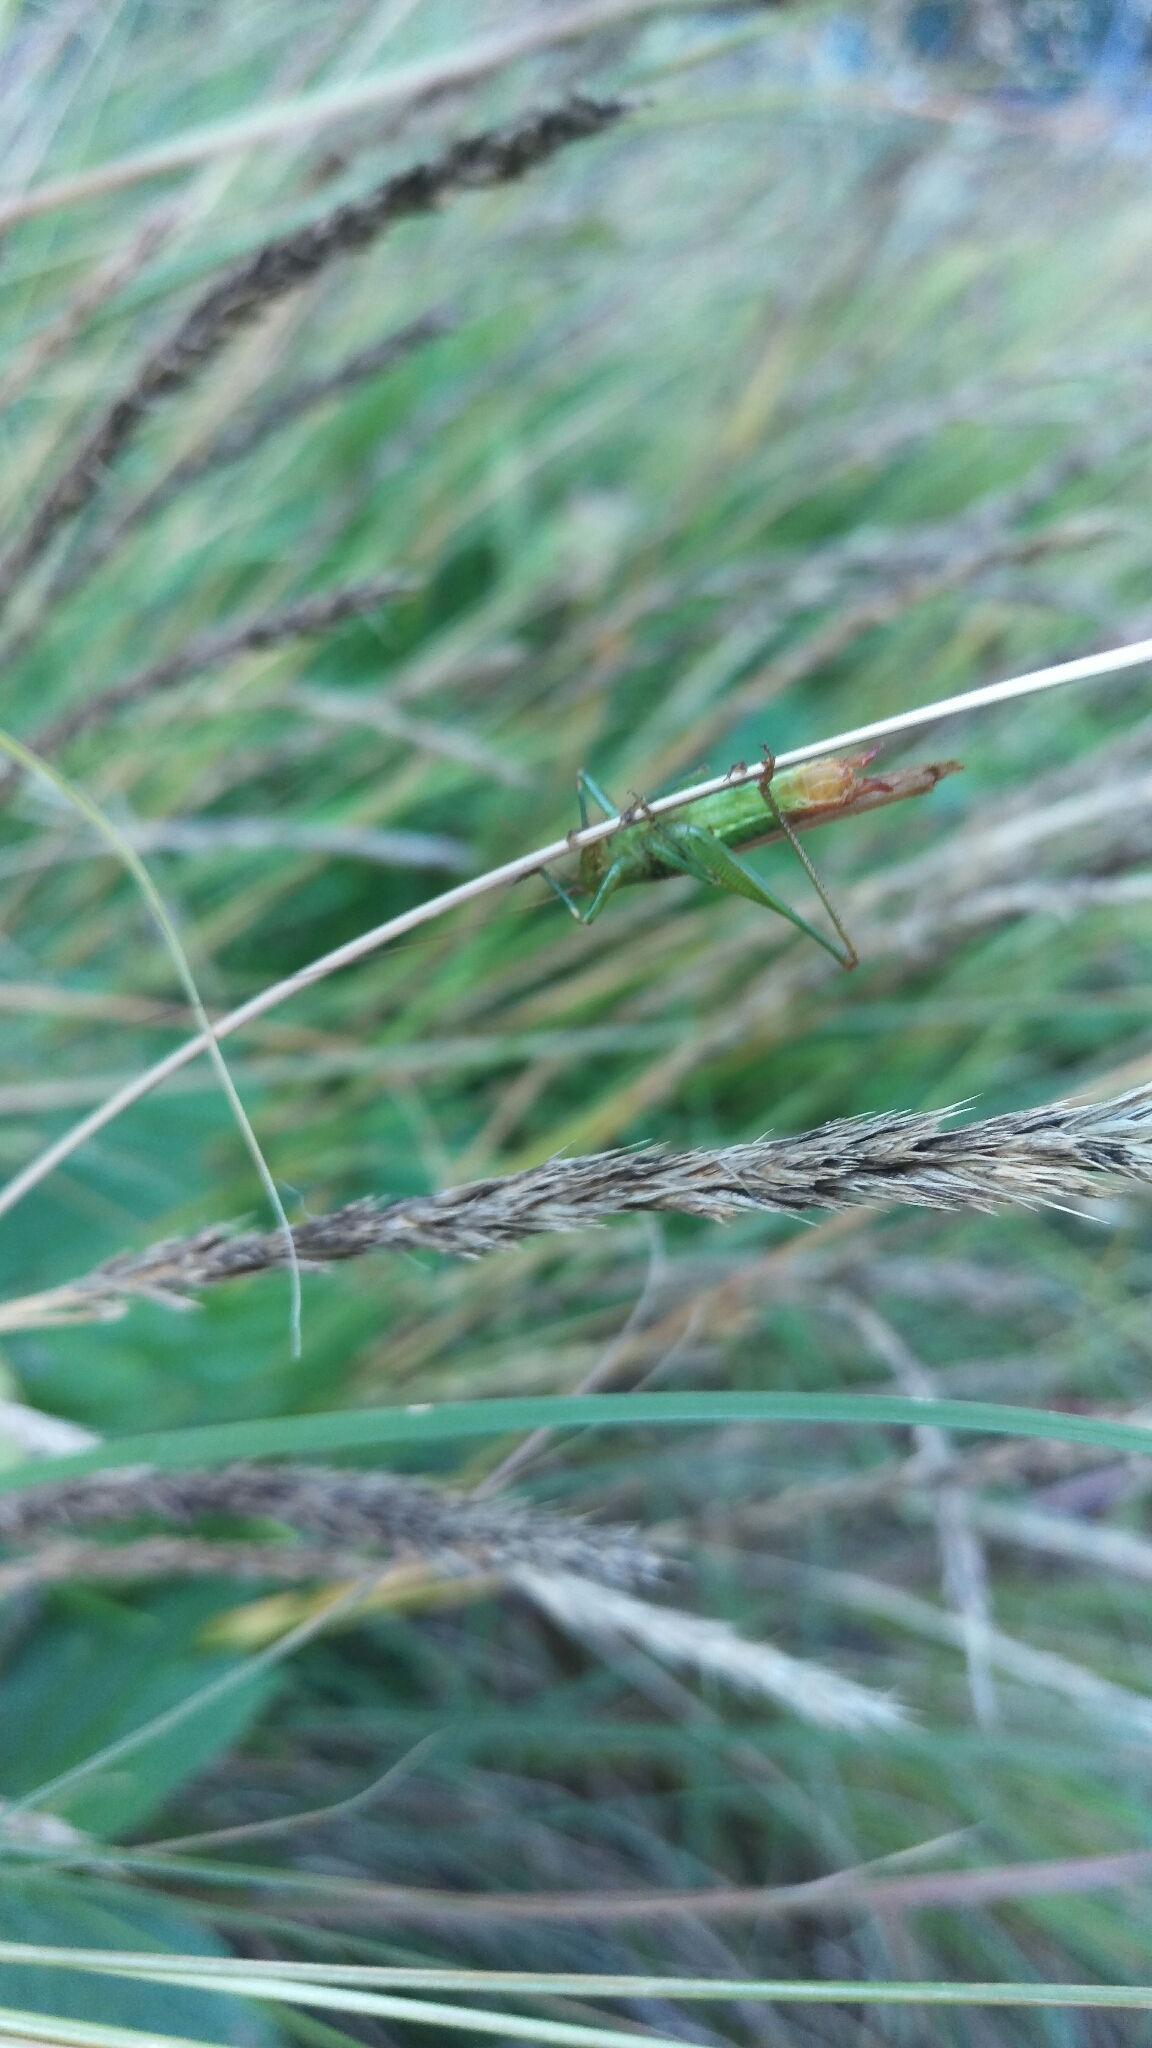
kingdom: Animalia
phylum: Arthropoda
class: Insecta
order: Orthoptera
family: Tettigoniidae
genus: Conocephalus
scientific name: Conocephalus brevipennis
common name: Short-winged meadow katydid
